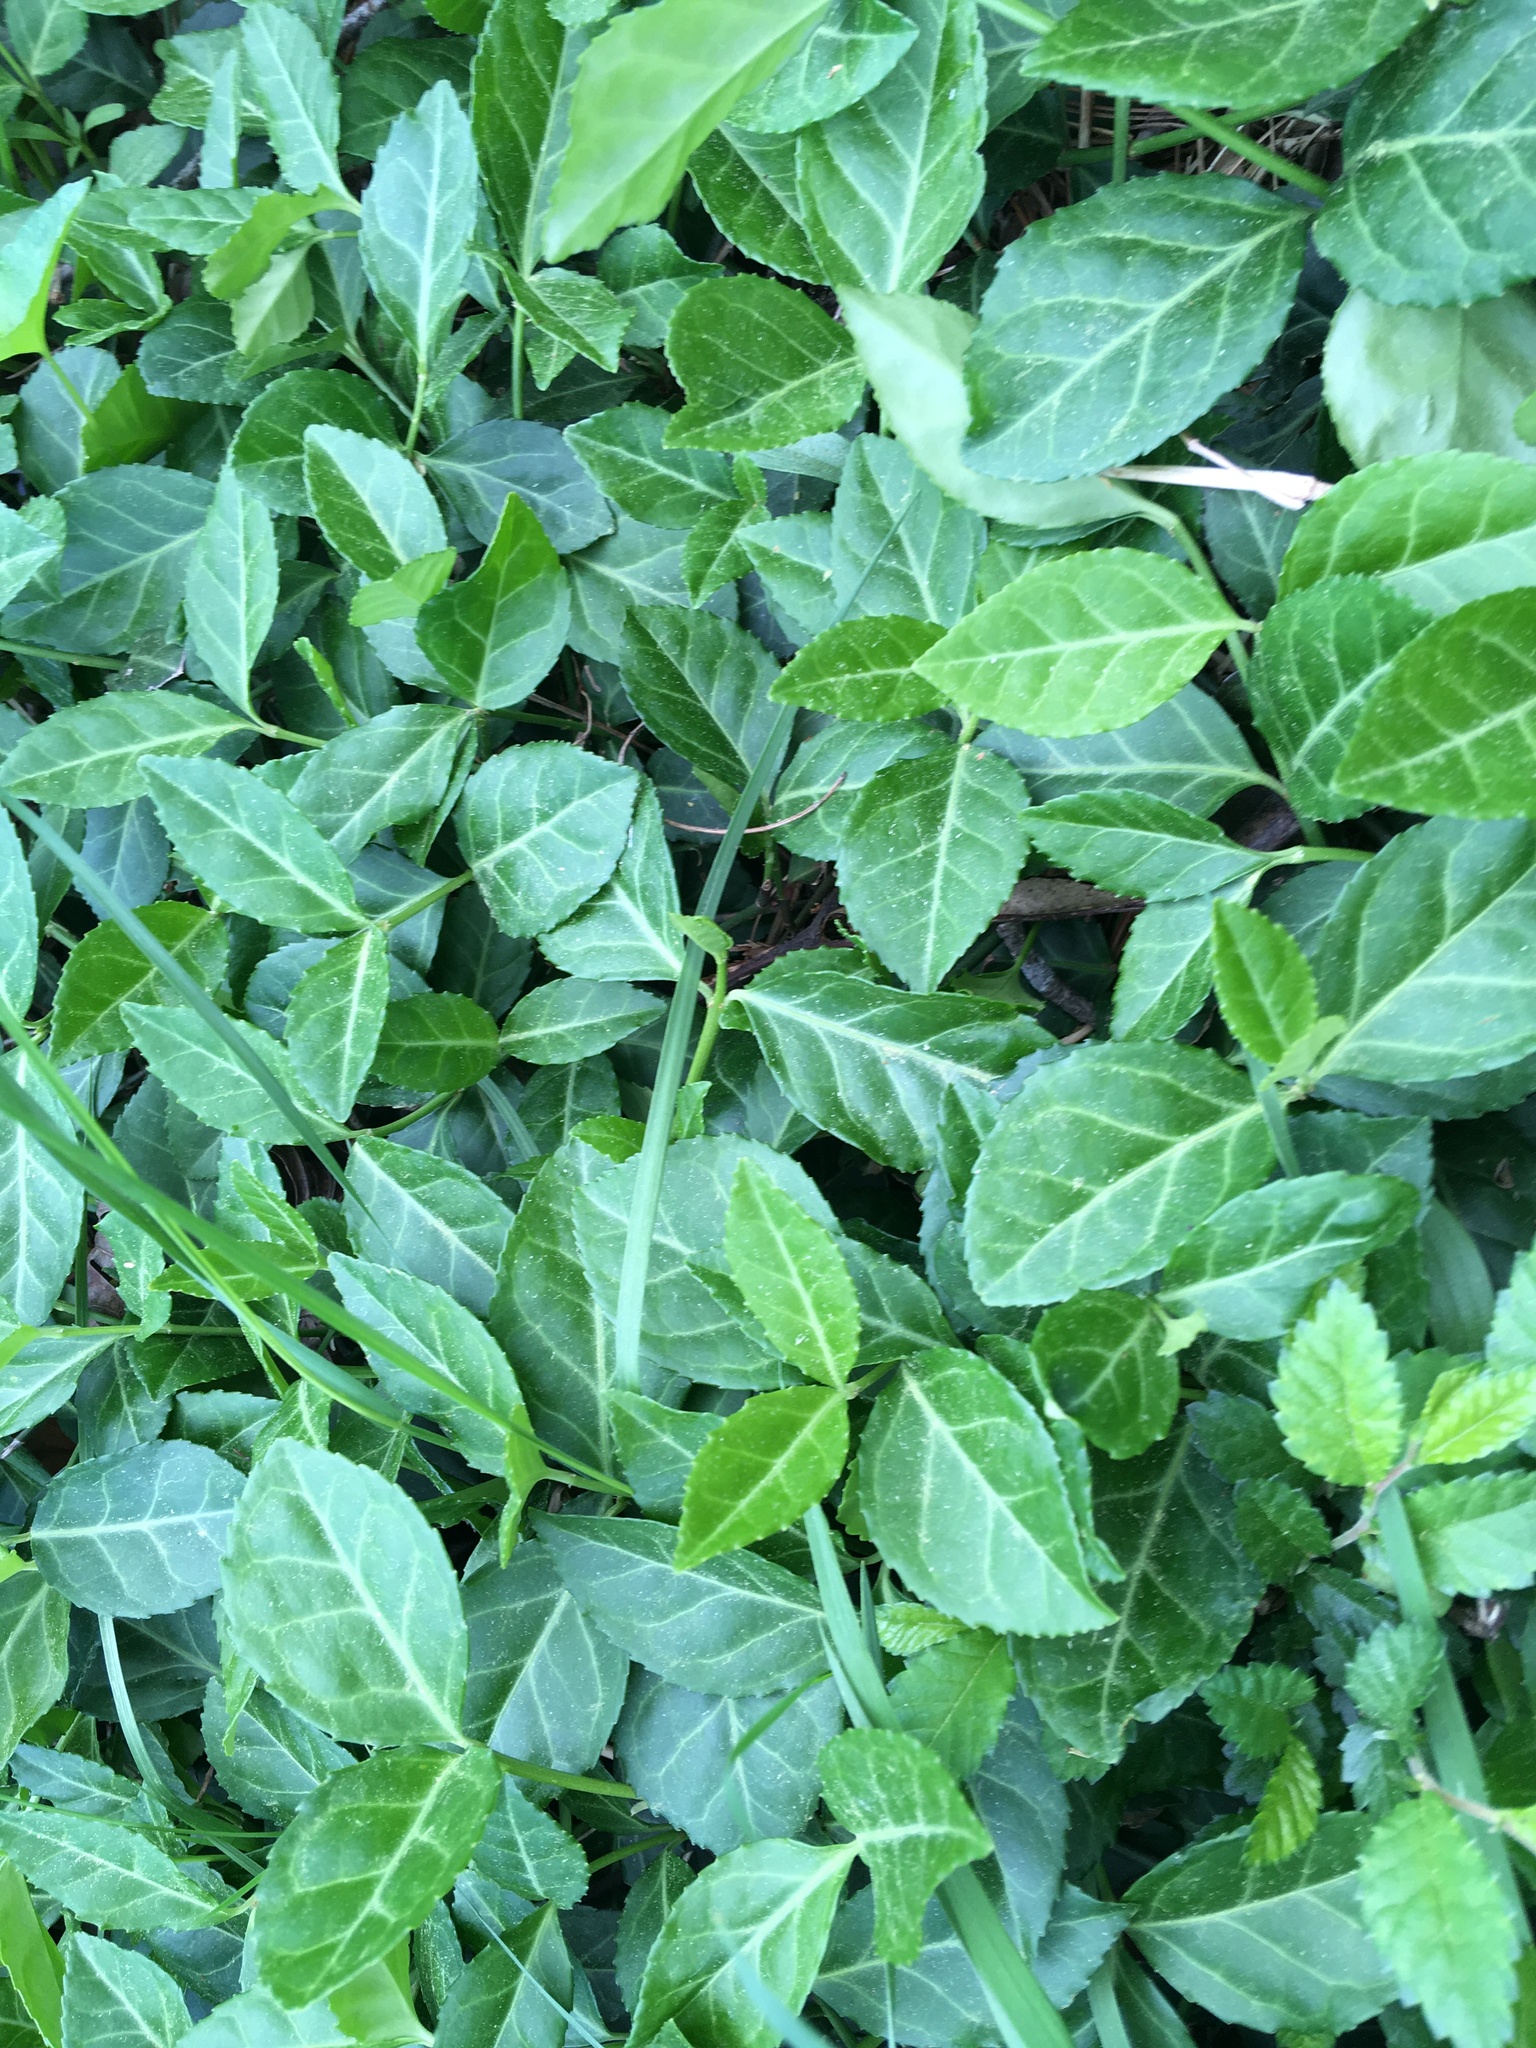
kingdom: Plantae
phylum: Tracheophyta
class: Magnoliopsida
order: Celastrales
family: Celastraceae
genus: Euonymus
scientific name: Euonymus fortunei
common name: Climbing euonymus
